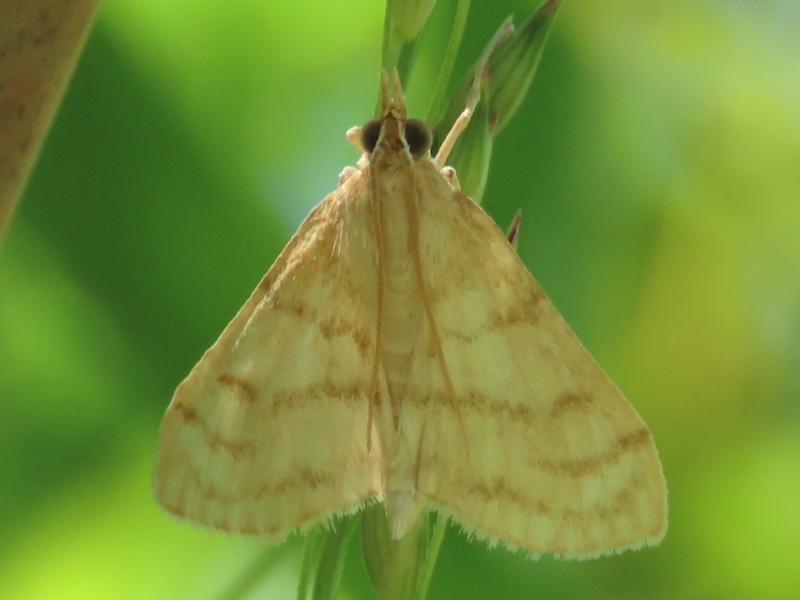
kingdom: Animalia
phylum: Arthropoda
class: Insecta
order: Lepidoptera
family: Crambidae
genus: Paracorsia
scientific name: Paracorsia repandalis
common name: Mullein moth
